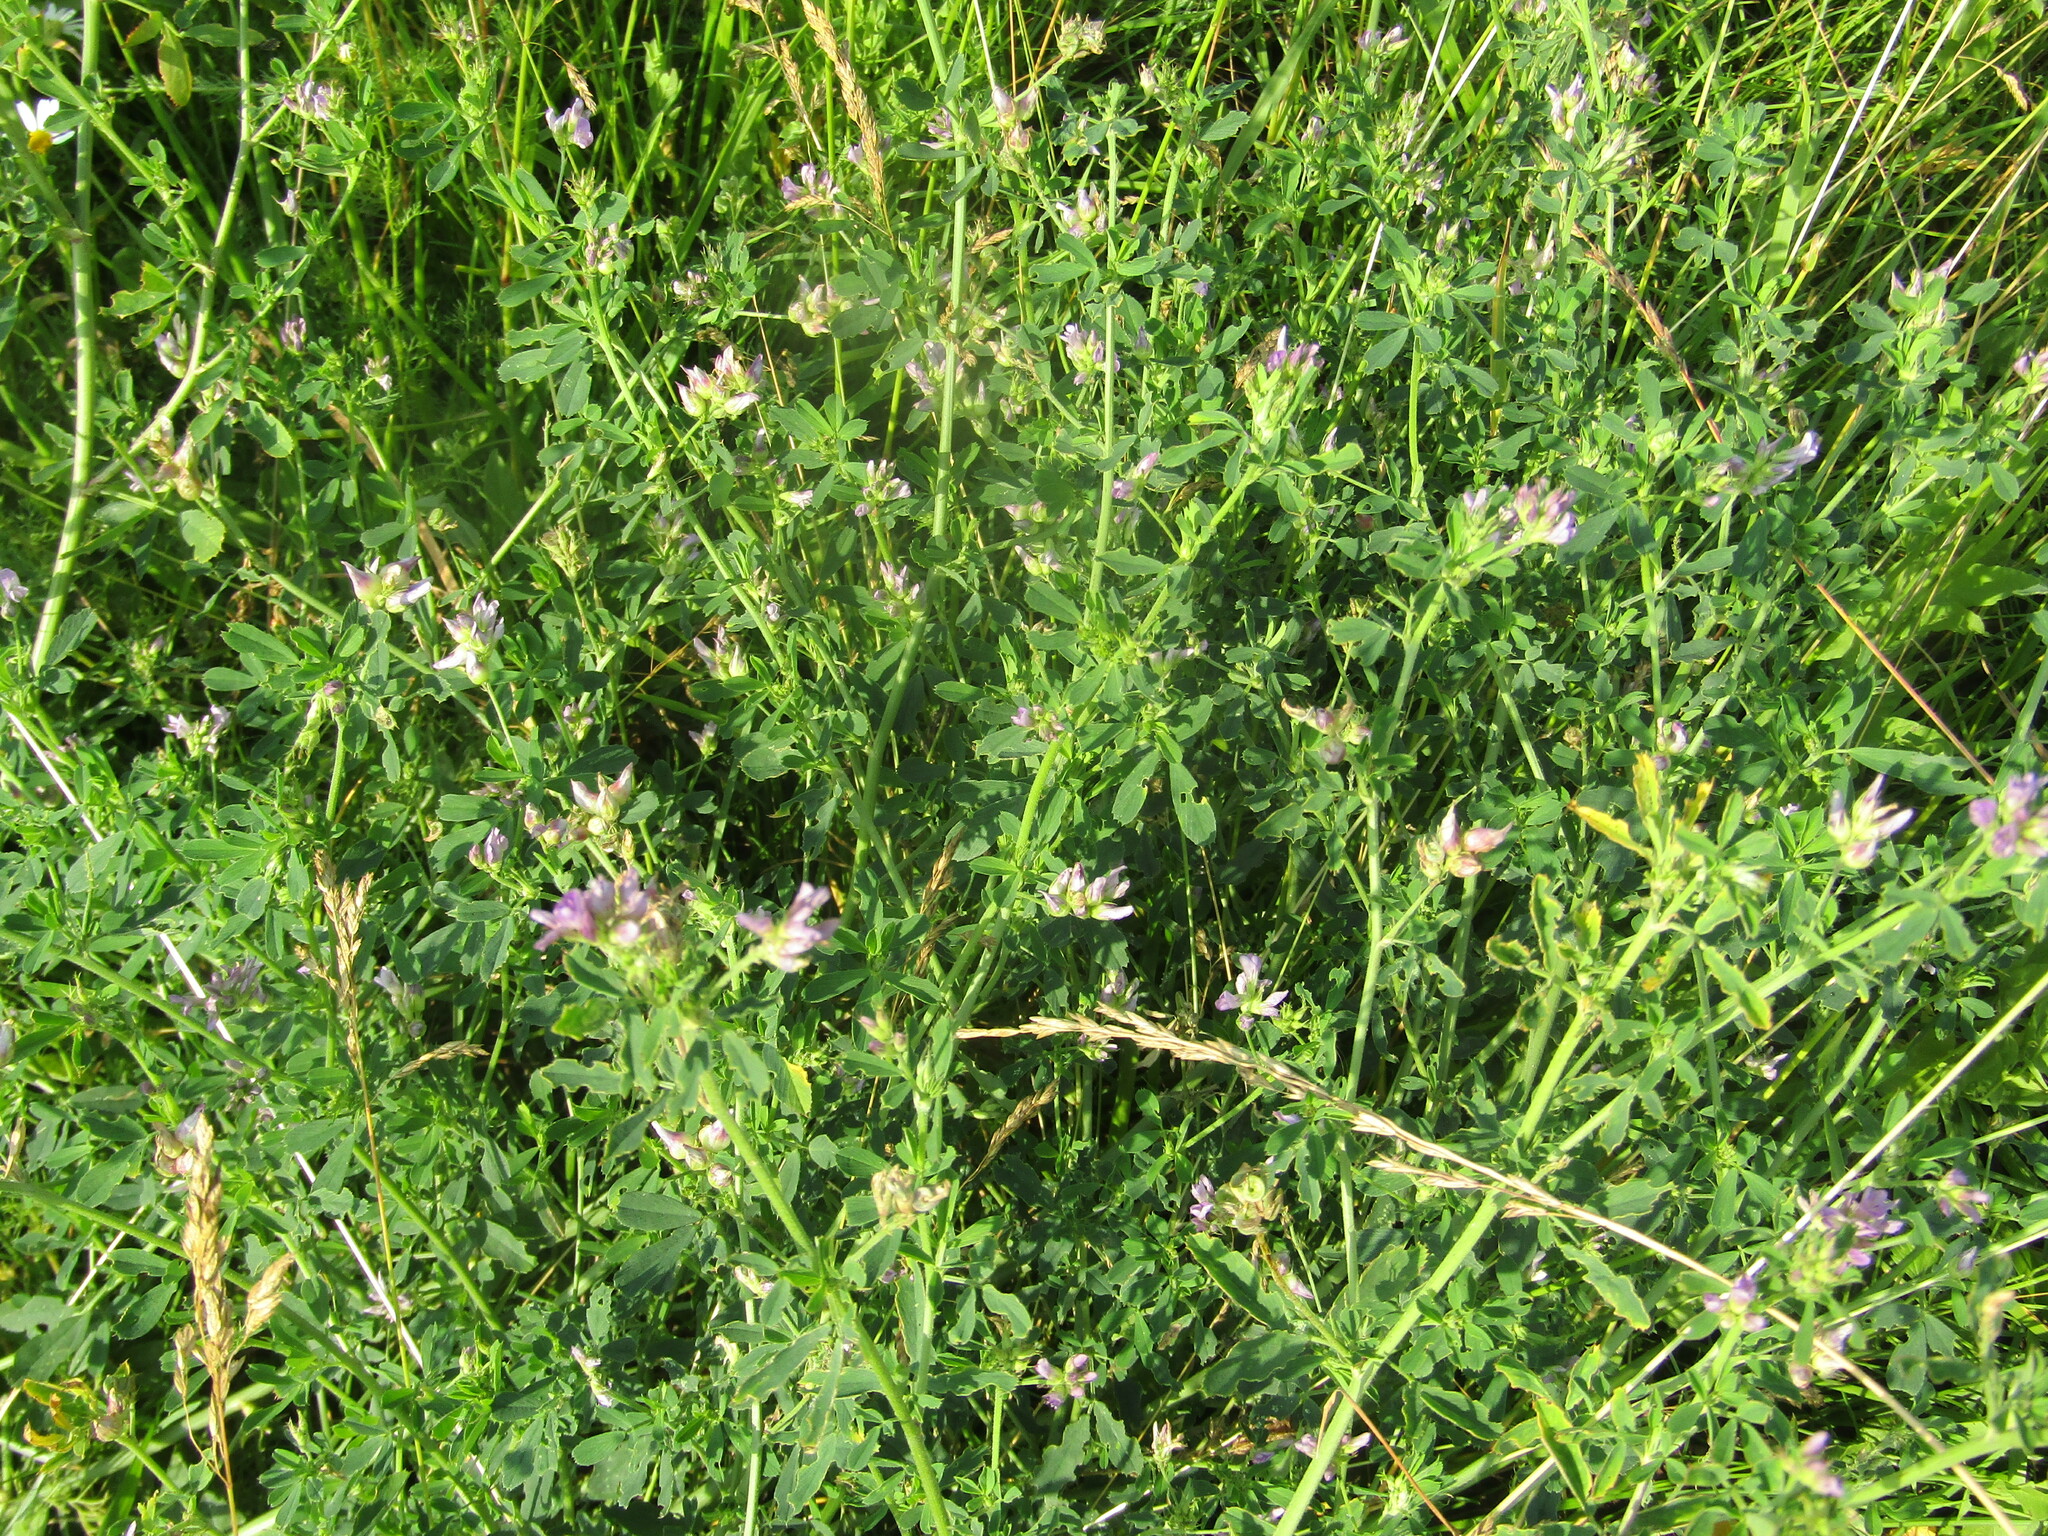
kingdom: Plantae
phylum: Tracheophyta
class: Magnoliopsida
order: Fabales
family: Fabaceae
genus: Medicago
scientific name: Medicago varia
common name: Sand lucerne
